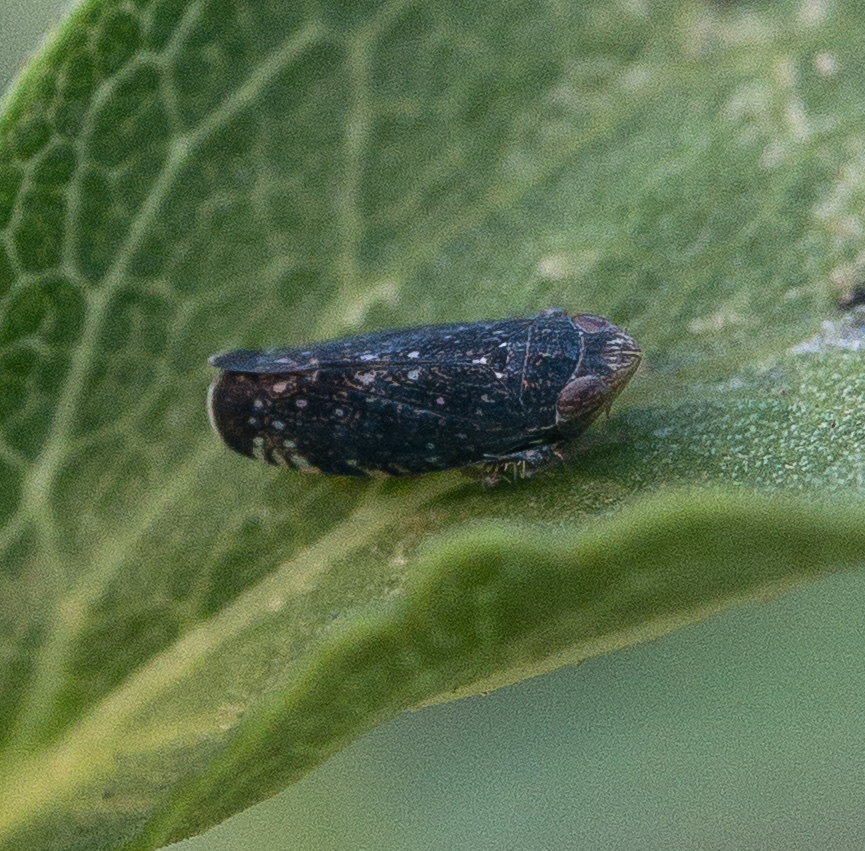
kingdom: Animalia
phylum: Arthropoda
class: Insecta
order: Hemiptera
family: Cicadellidae
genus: Scaphytopius
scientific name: Scaphytopius frontalis
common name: The yellow-faced leafhopper
